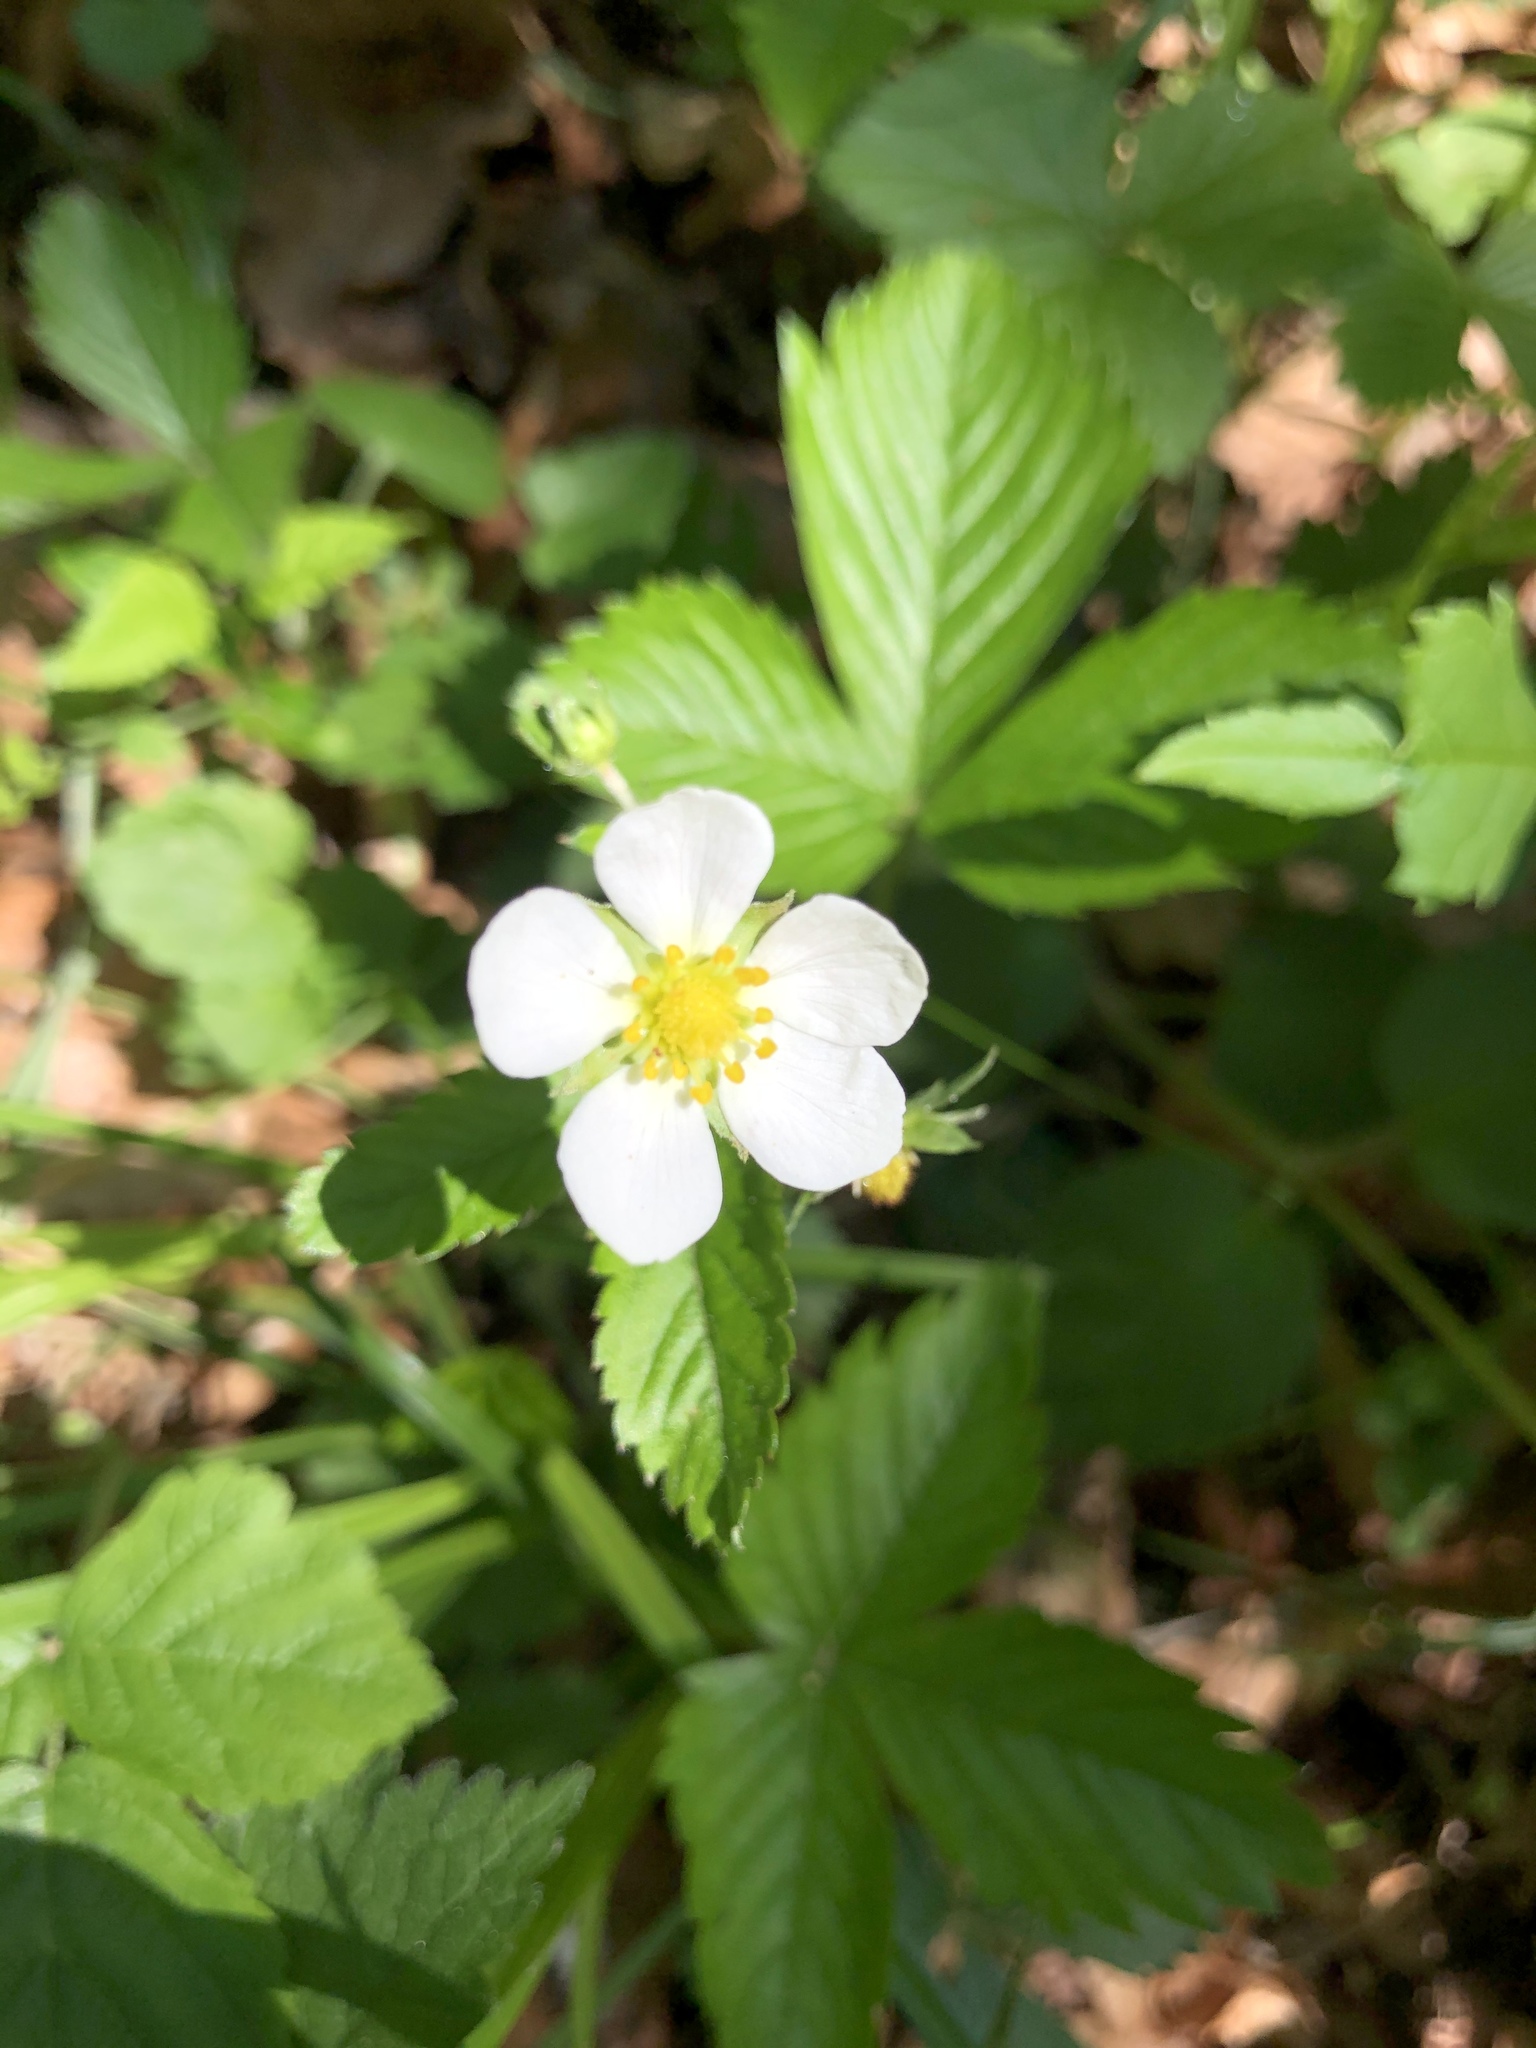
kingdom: Plantae
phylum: Tracheophyta
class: Magnoliopsida
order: Rosales
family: Rosaceae
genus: Fragaria
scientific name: Fragaria vesca
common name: Wild strawberry
